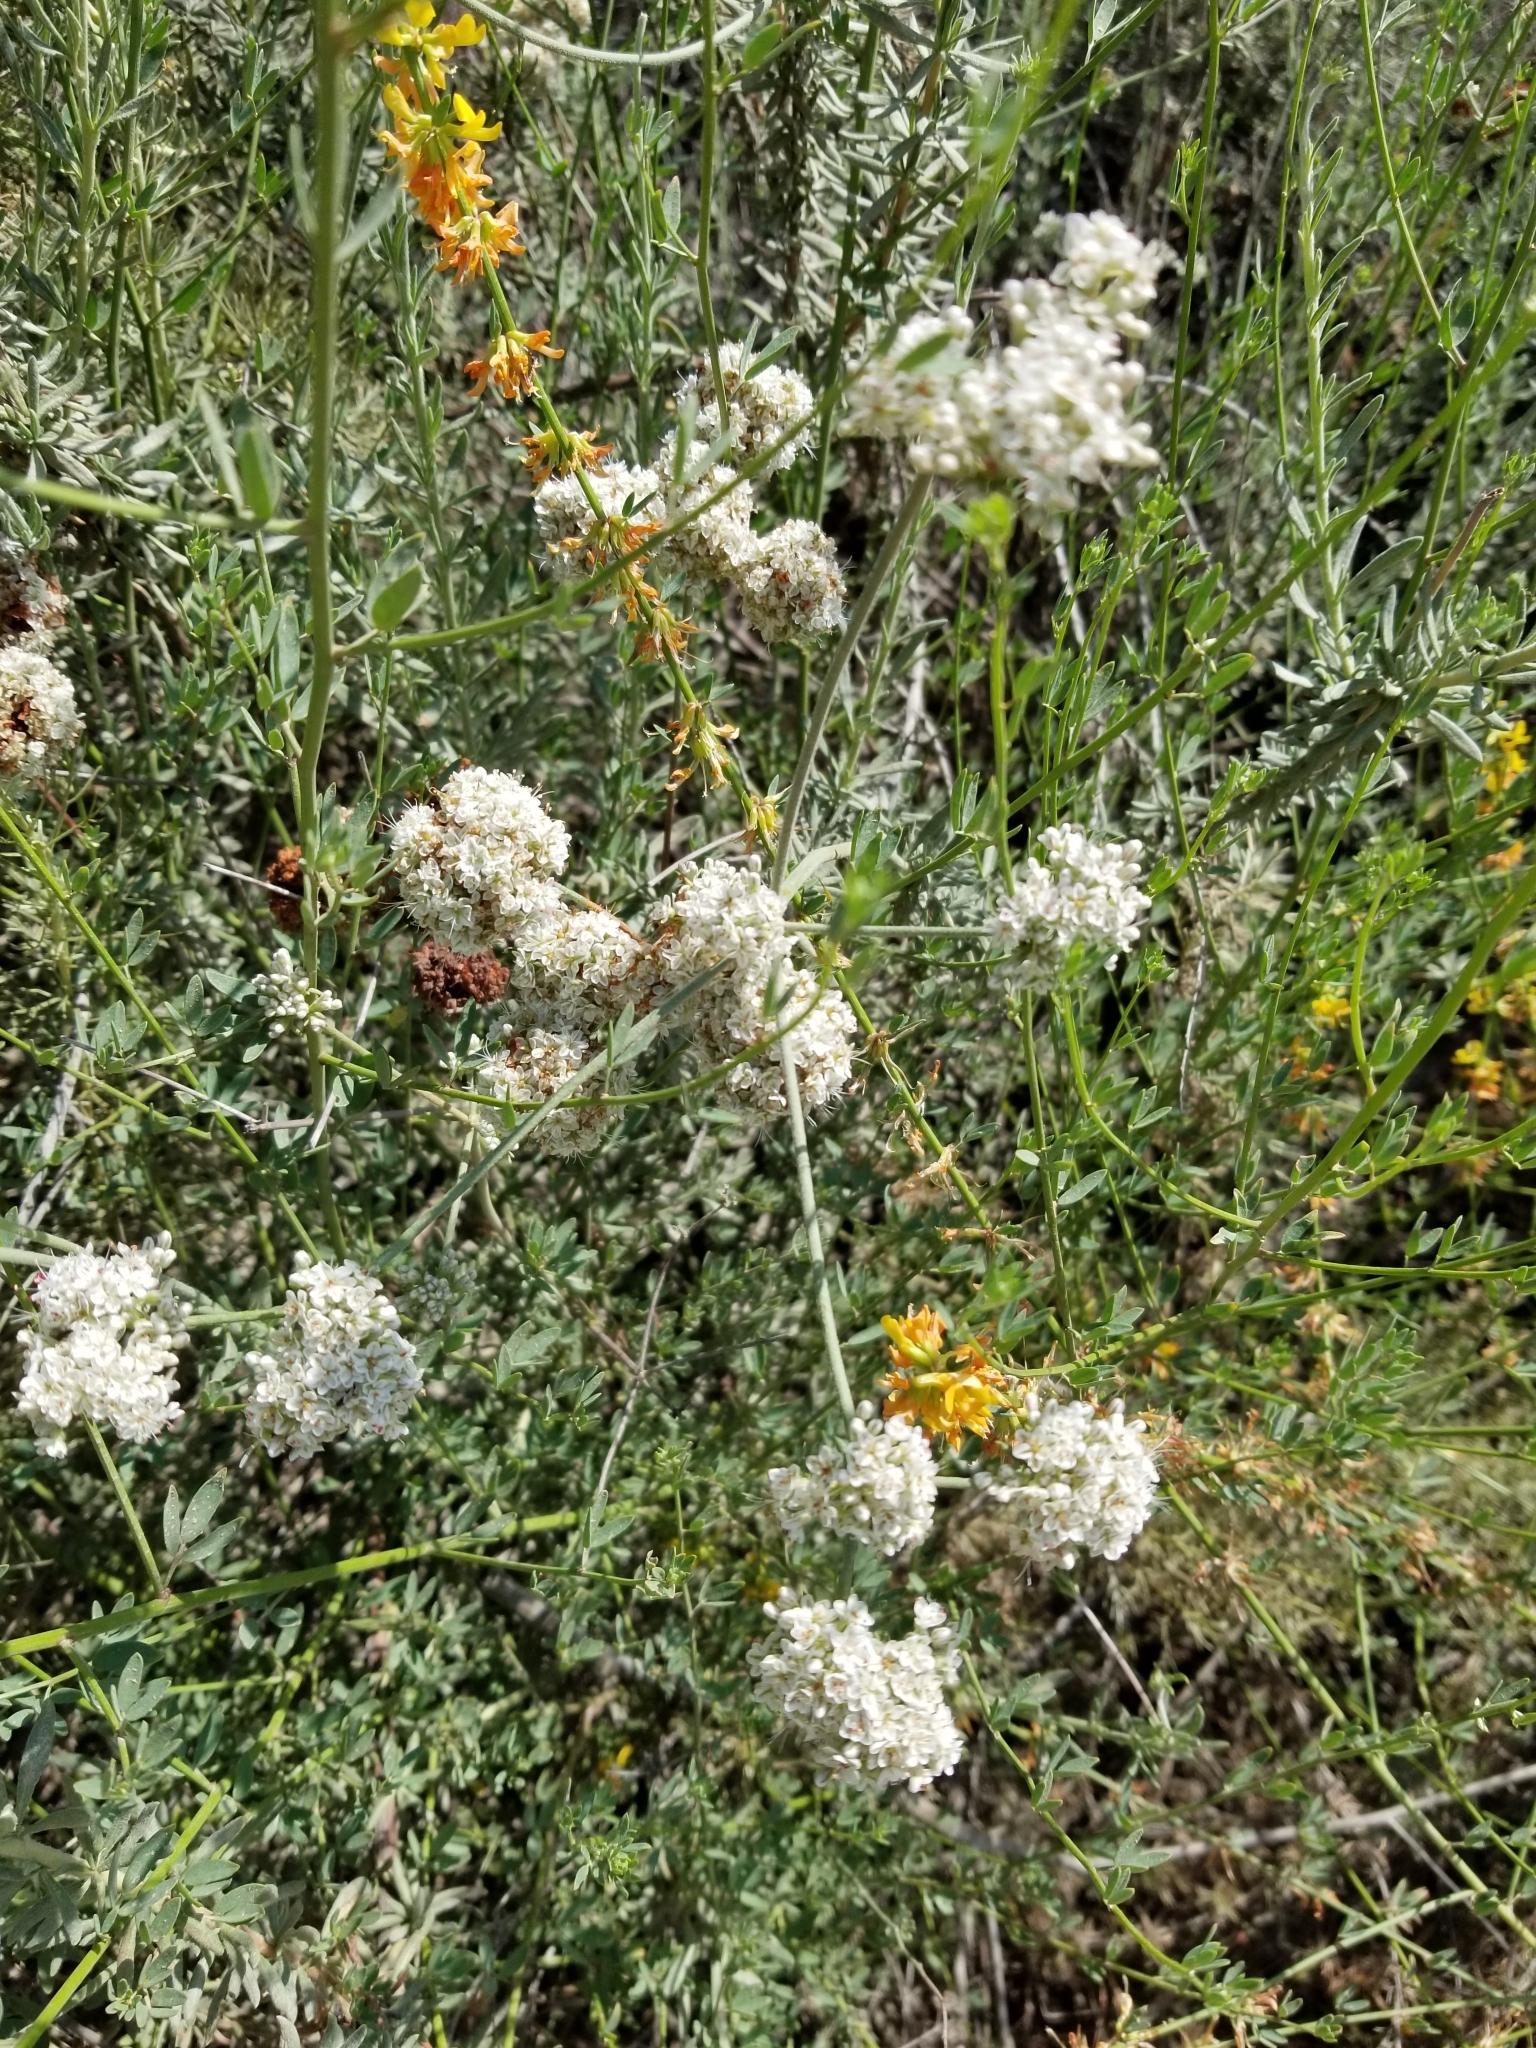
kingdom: Plantae
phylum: Tracheophyta
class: Magnoliopsida
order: Caryophyllales
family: Polygonaceae
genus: Eriogonum
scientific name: Eriogonum fasciculatum
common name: California wild buckwheat
